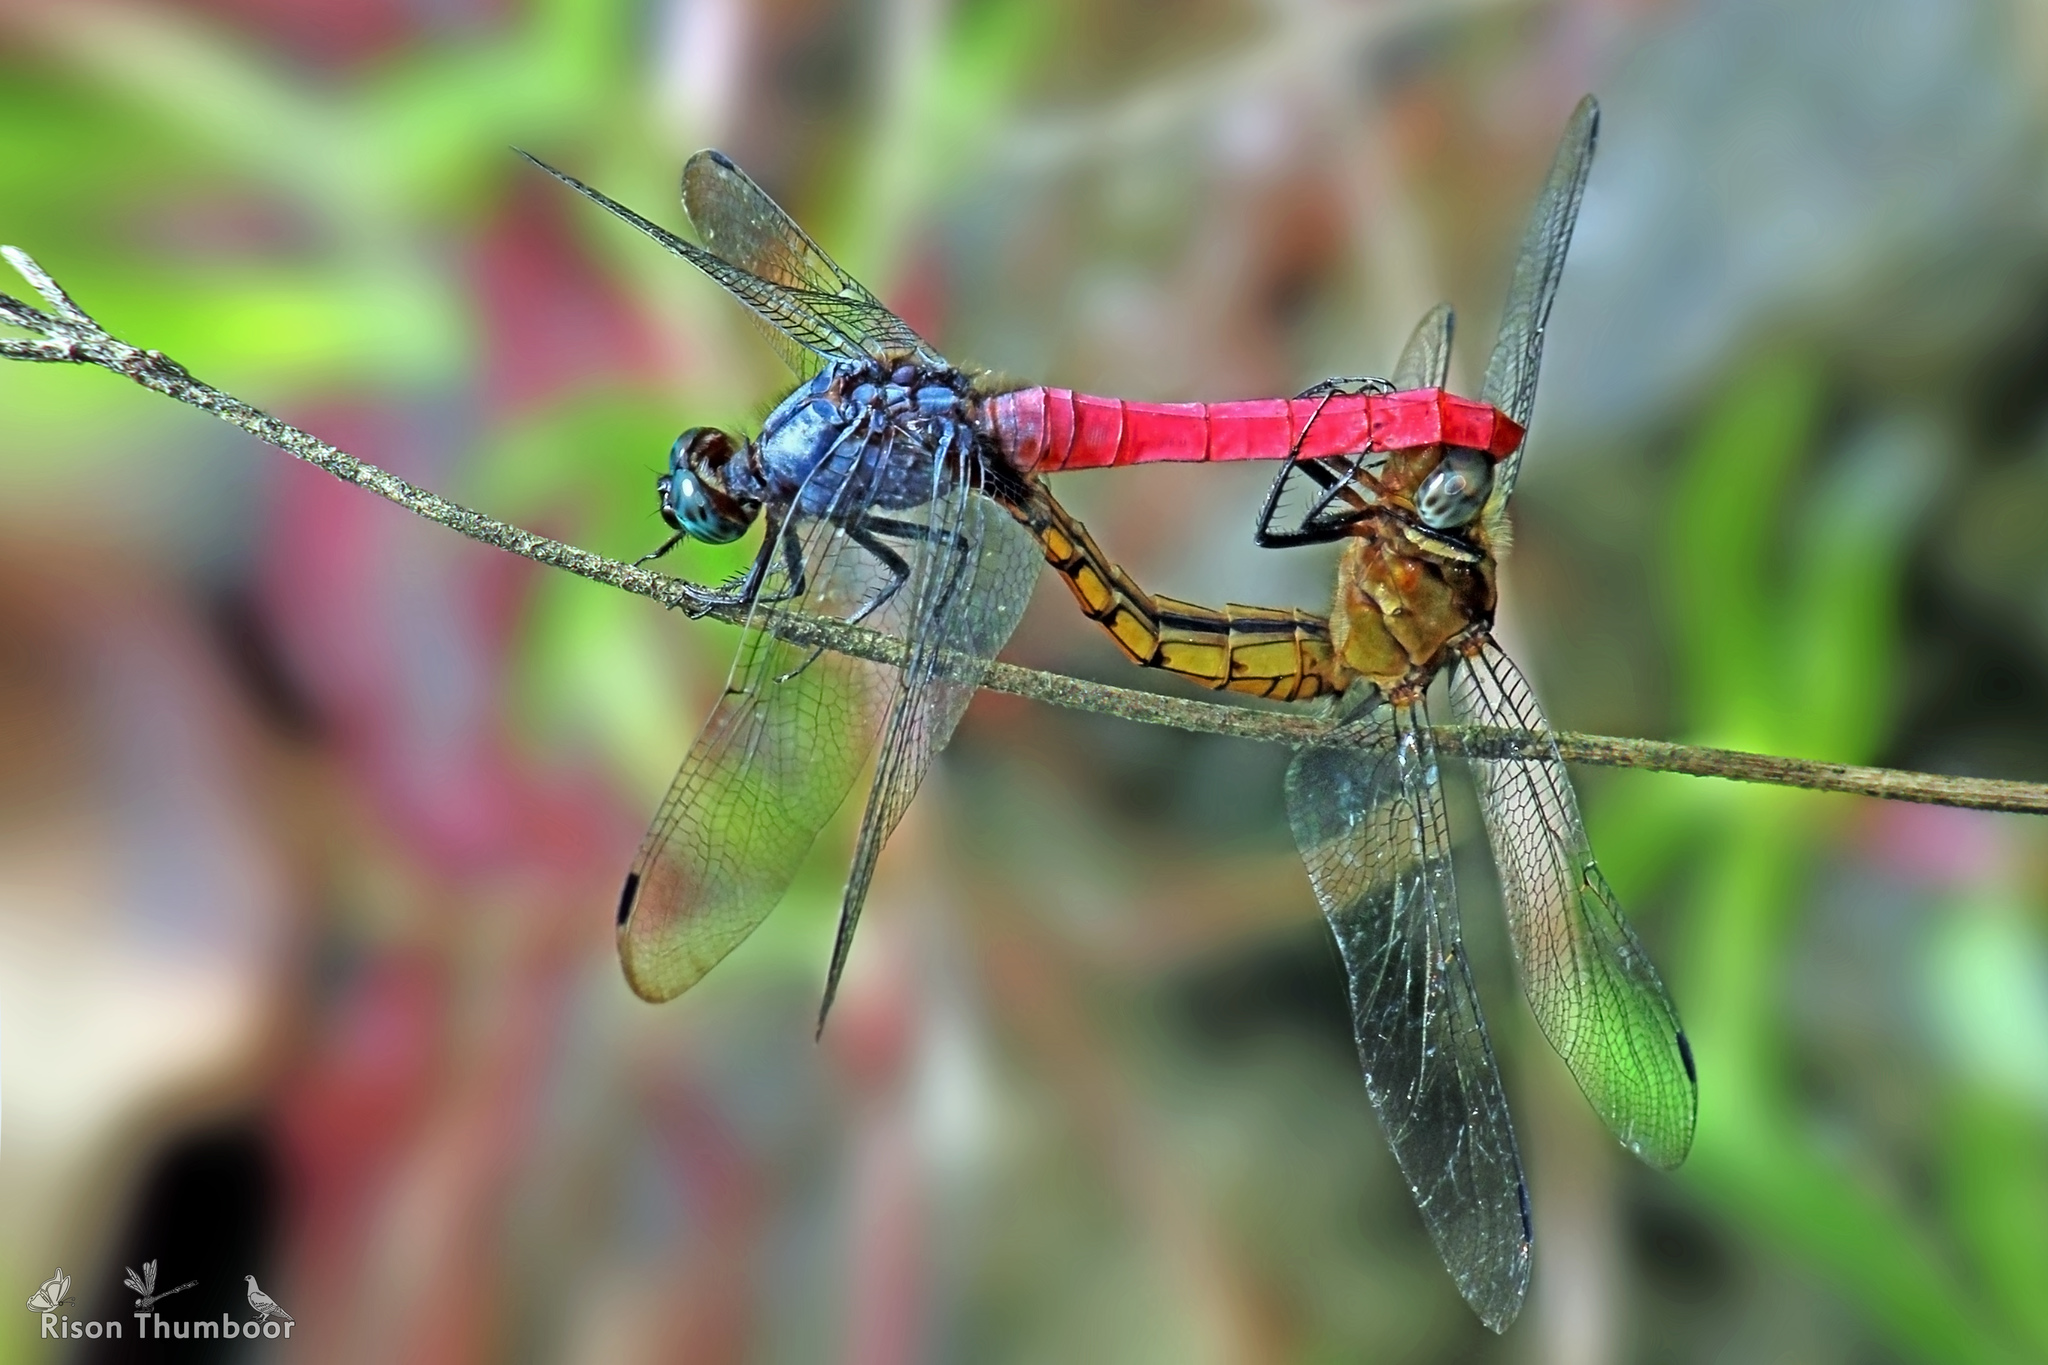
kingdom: Animalia
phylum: Arthropoda
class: Insecta
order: Odonata
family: Libellulidae
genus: Orthetrum
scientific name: Orthetrum pruinosum
